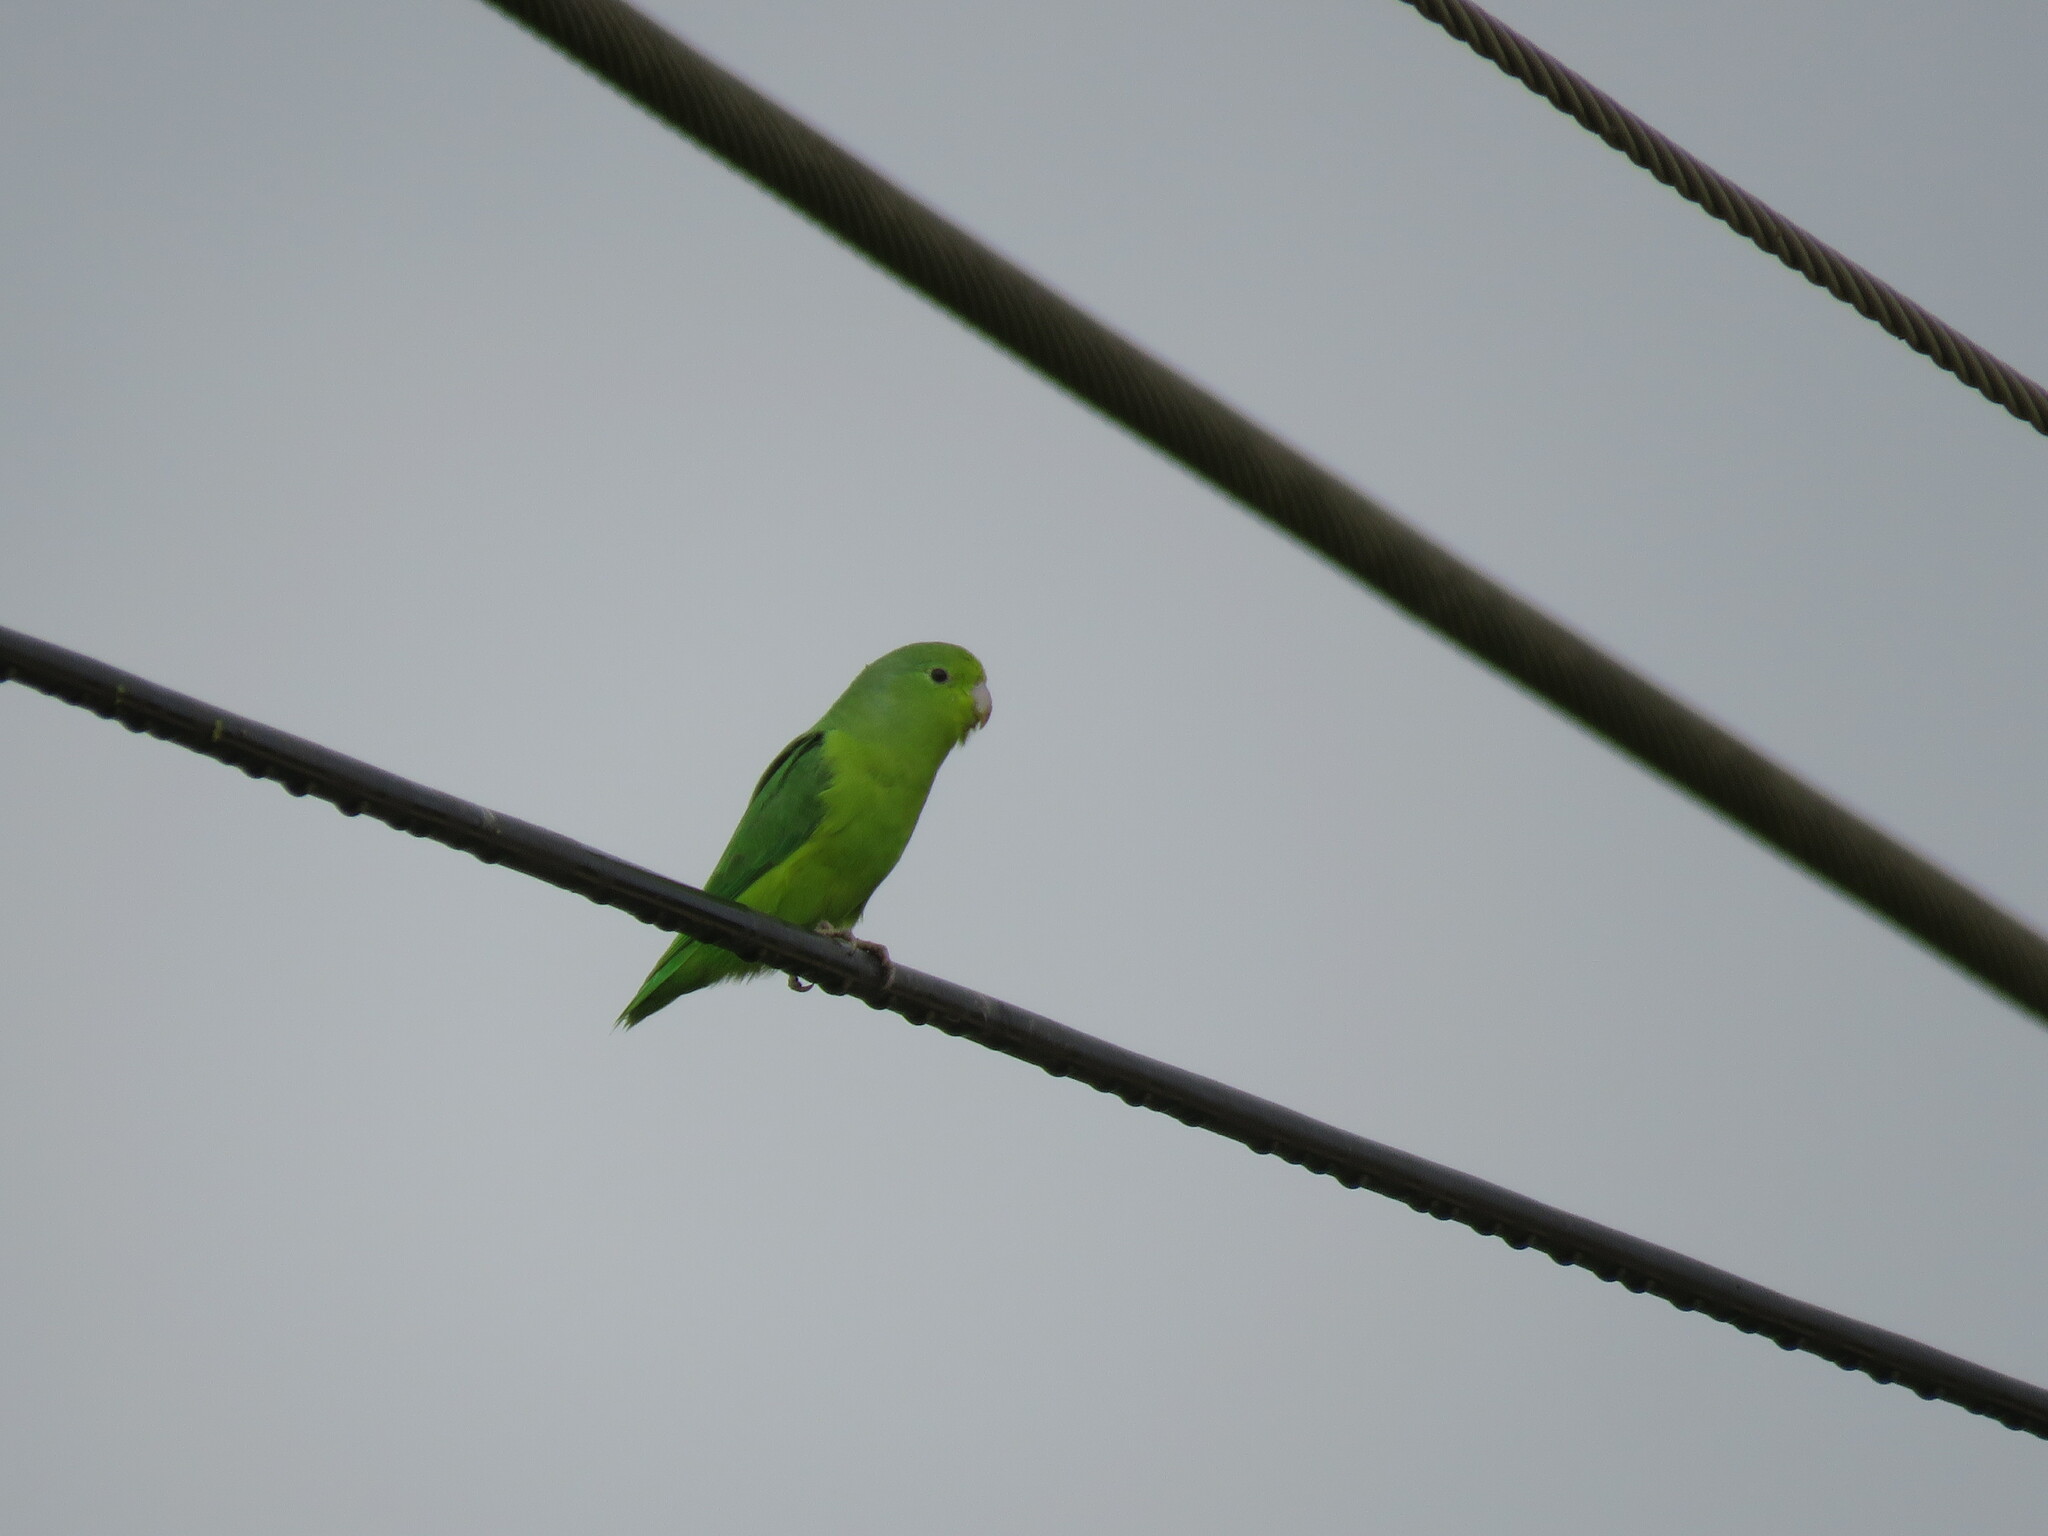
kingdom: Animalia
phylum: Chordata
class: Aves
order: Psittaciformes
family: Psittacidae
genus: Forpus
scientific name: Forpus xanthopterygius
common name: Blue-winged parrotlet
